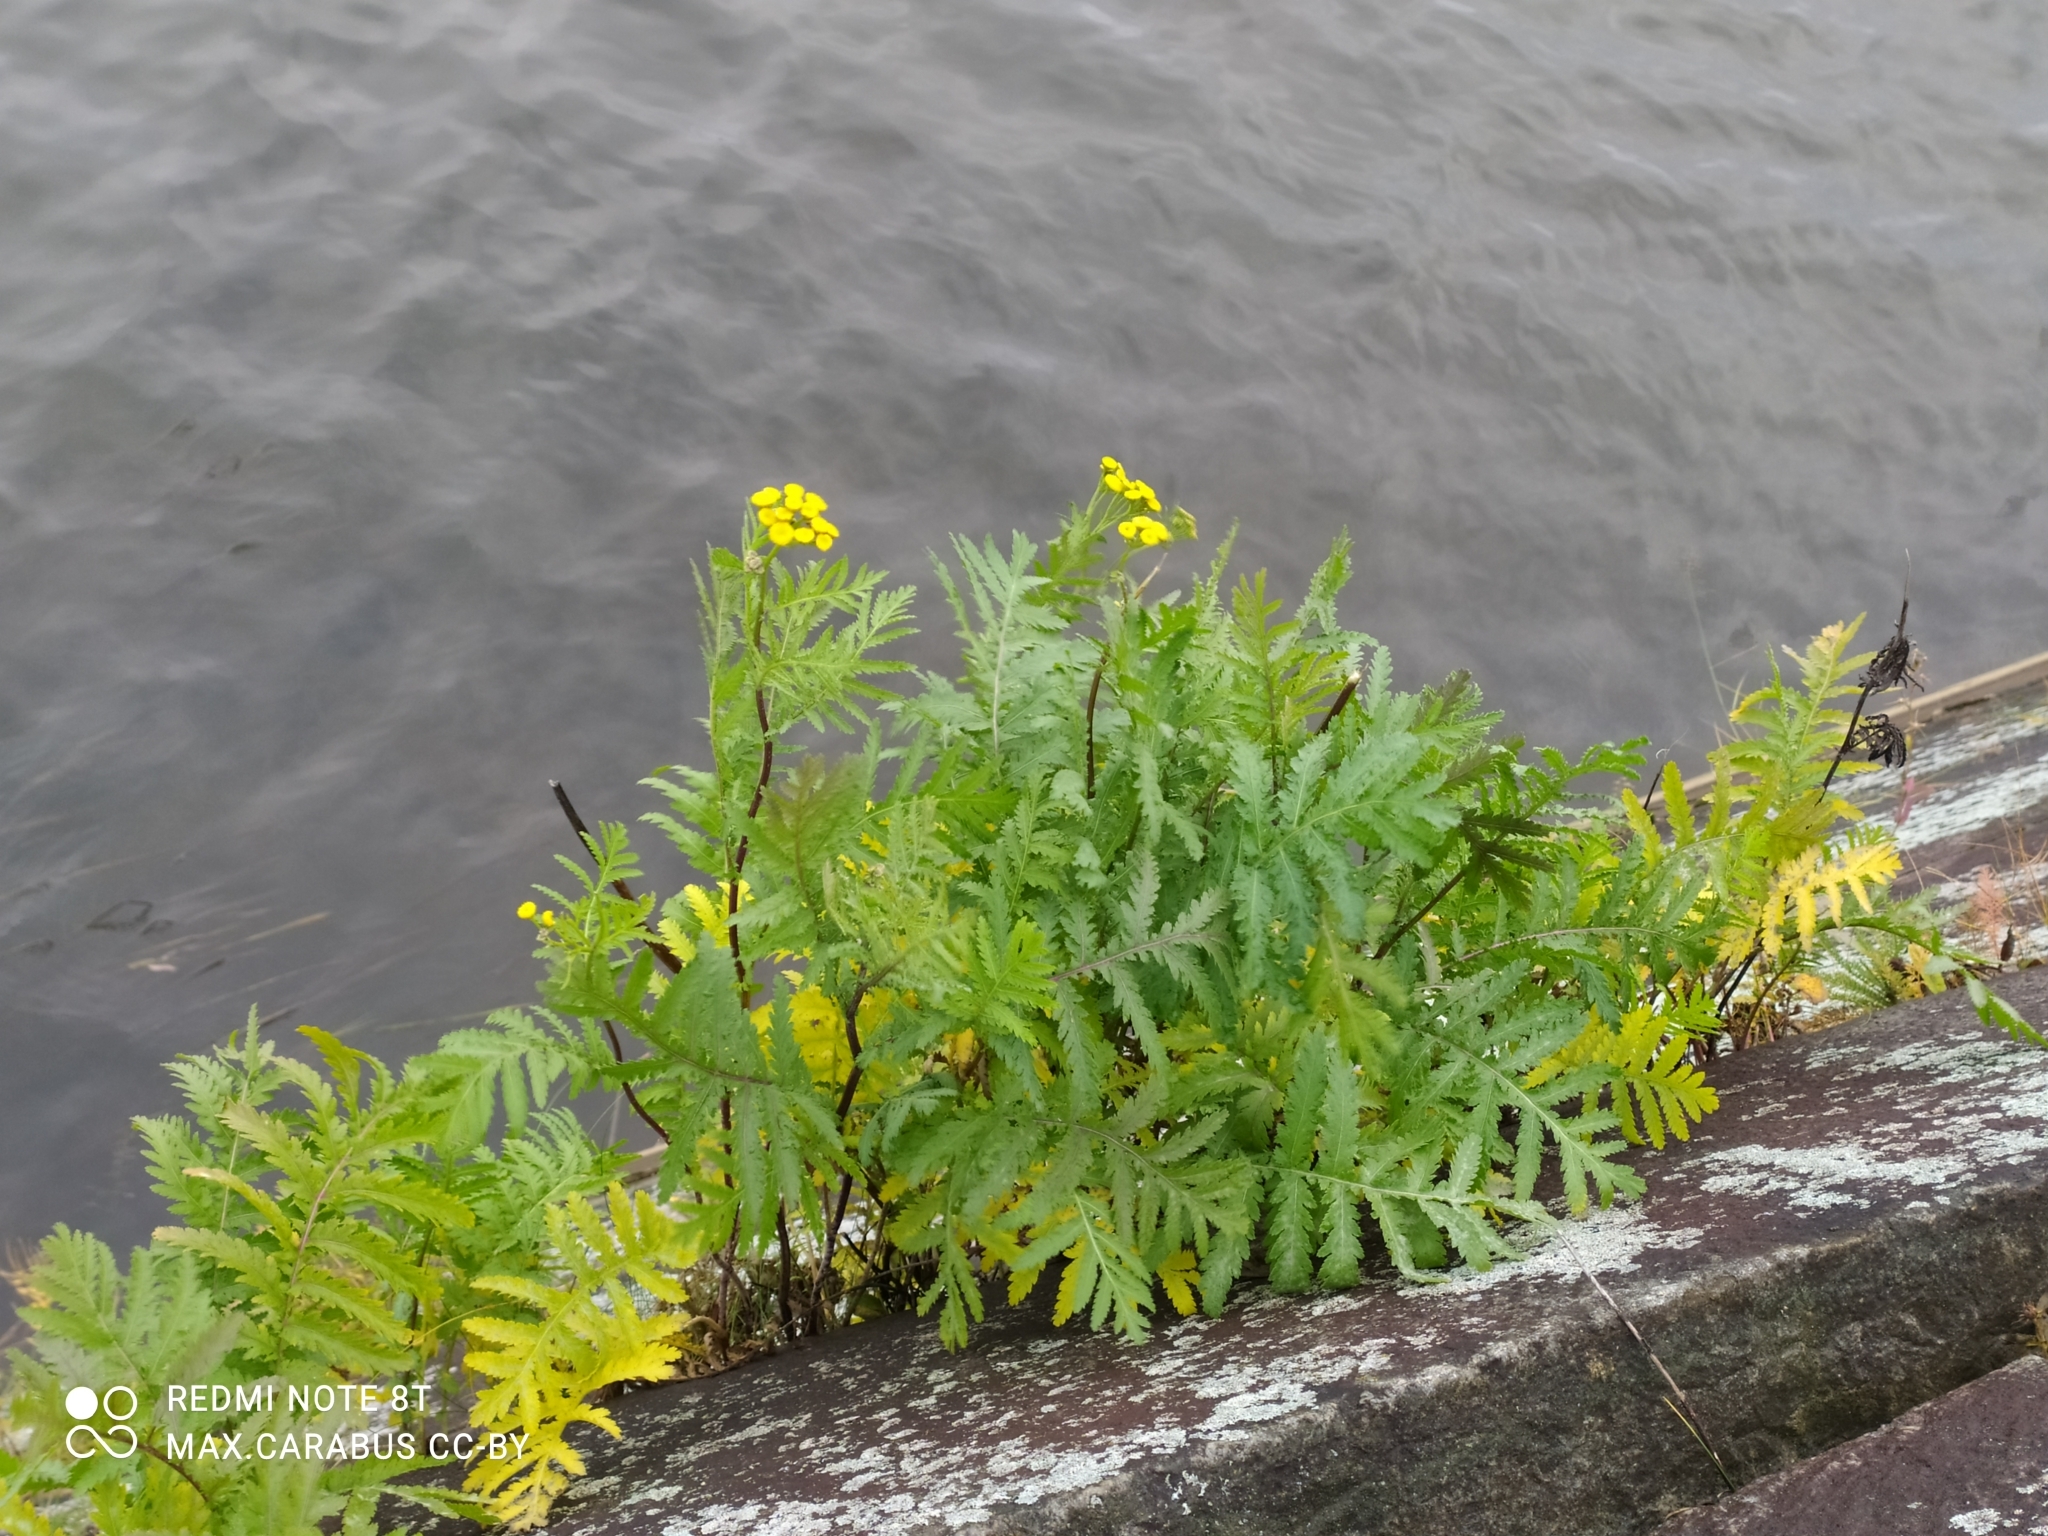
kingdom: Plantae
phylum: Tracheophyta
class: Magnoliopsida
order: Asterales
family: Asteraceae
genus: Tanacetum
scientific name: Tanacetum vulgare
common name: Common tansy
